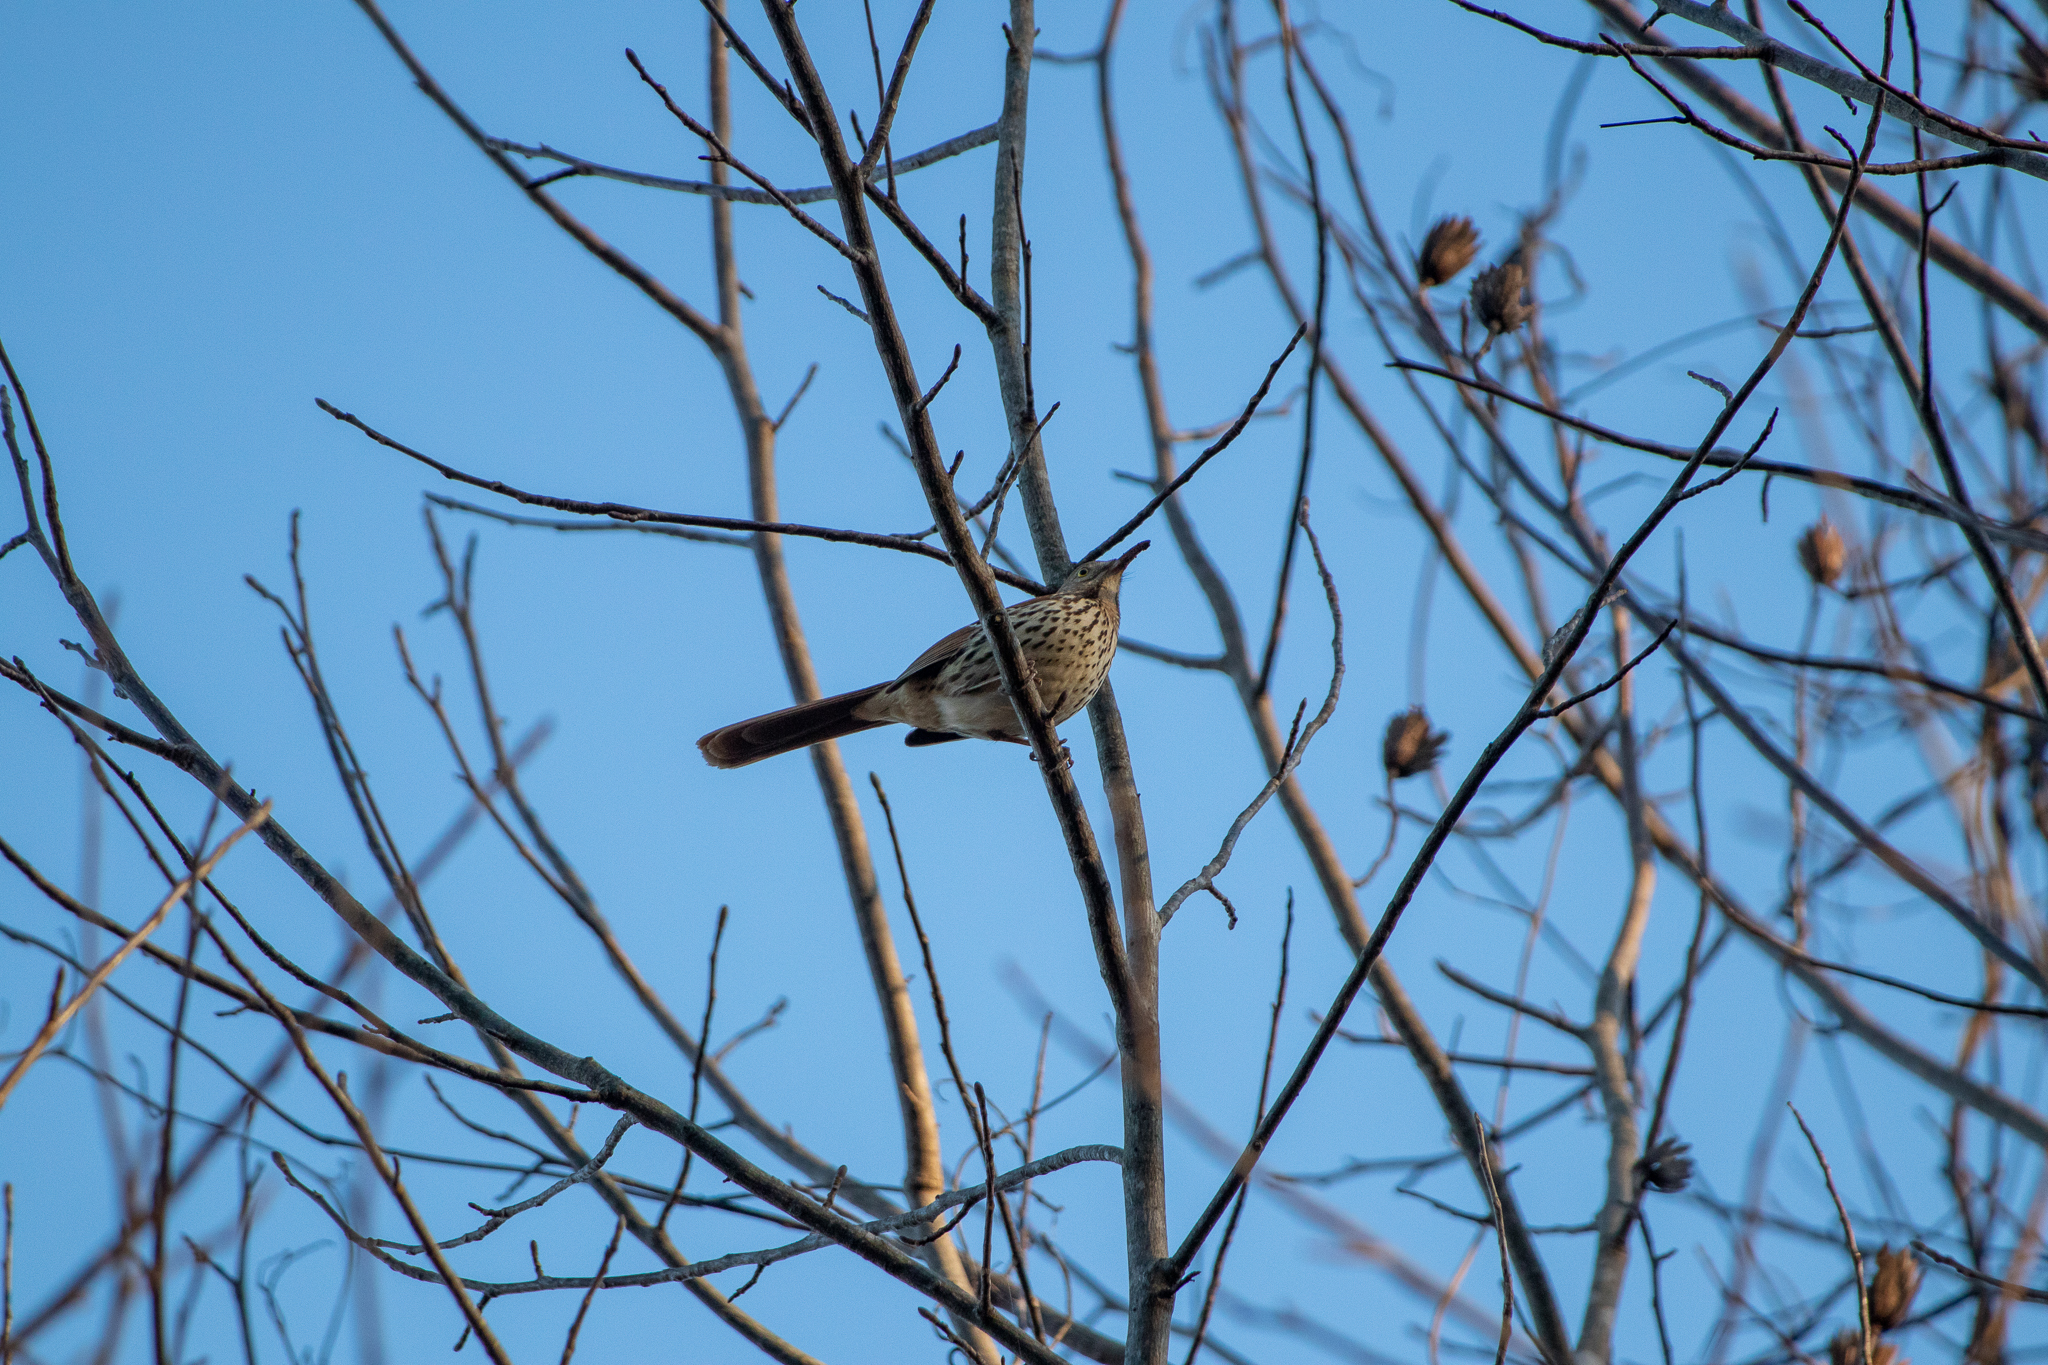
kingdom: Animalia
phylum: Chordata
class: Aves
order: Passeriformes
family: Mimidae
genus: Toxostoma
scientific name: Toxostoma rufum
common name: Brown thrasher
